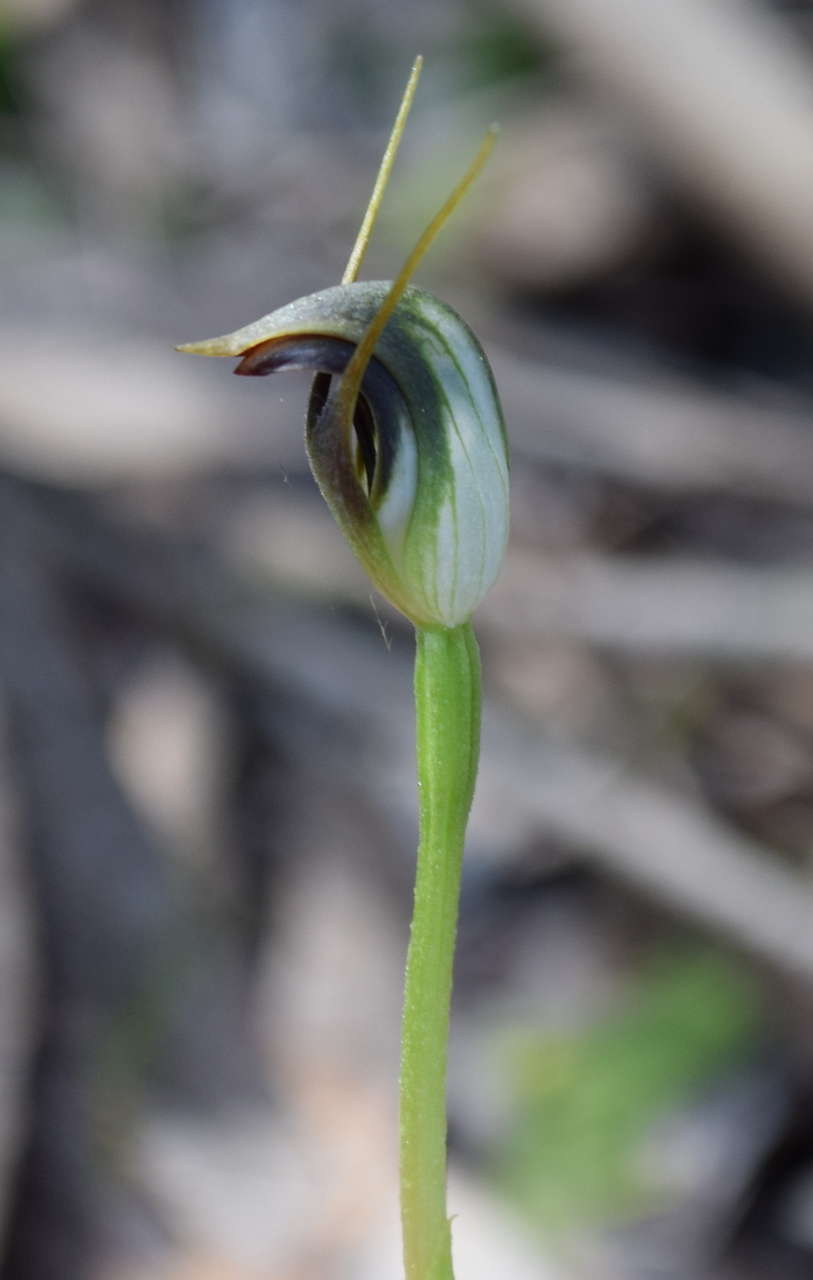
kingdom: Plantae
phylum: Tracheophyta
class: Liliopsida
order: Asparagales
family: Orchidaceae
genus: Pterostylis
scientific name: Pterostylis pedunculata
